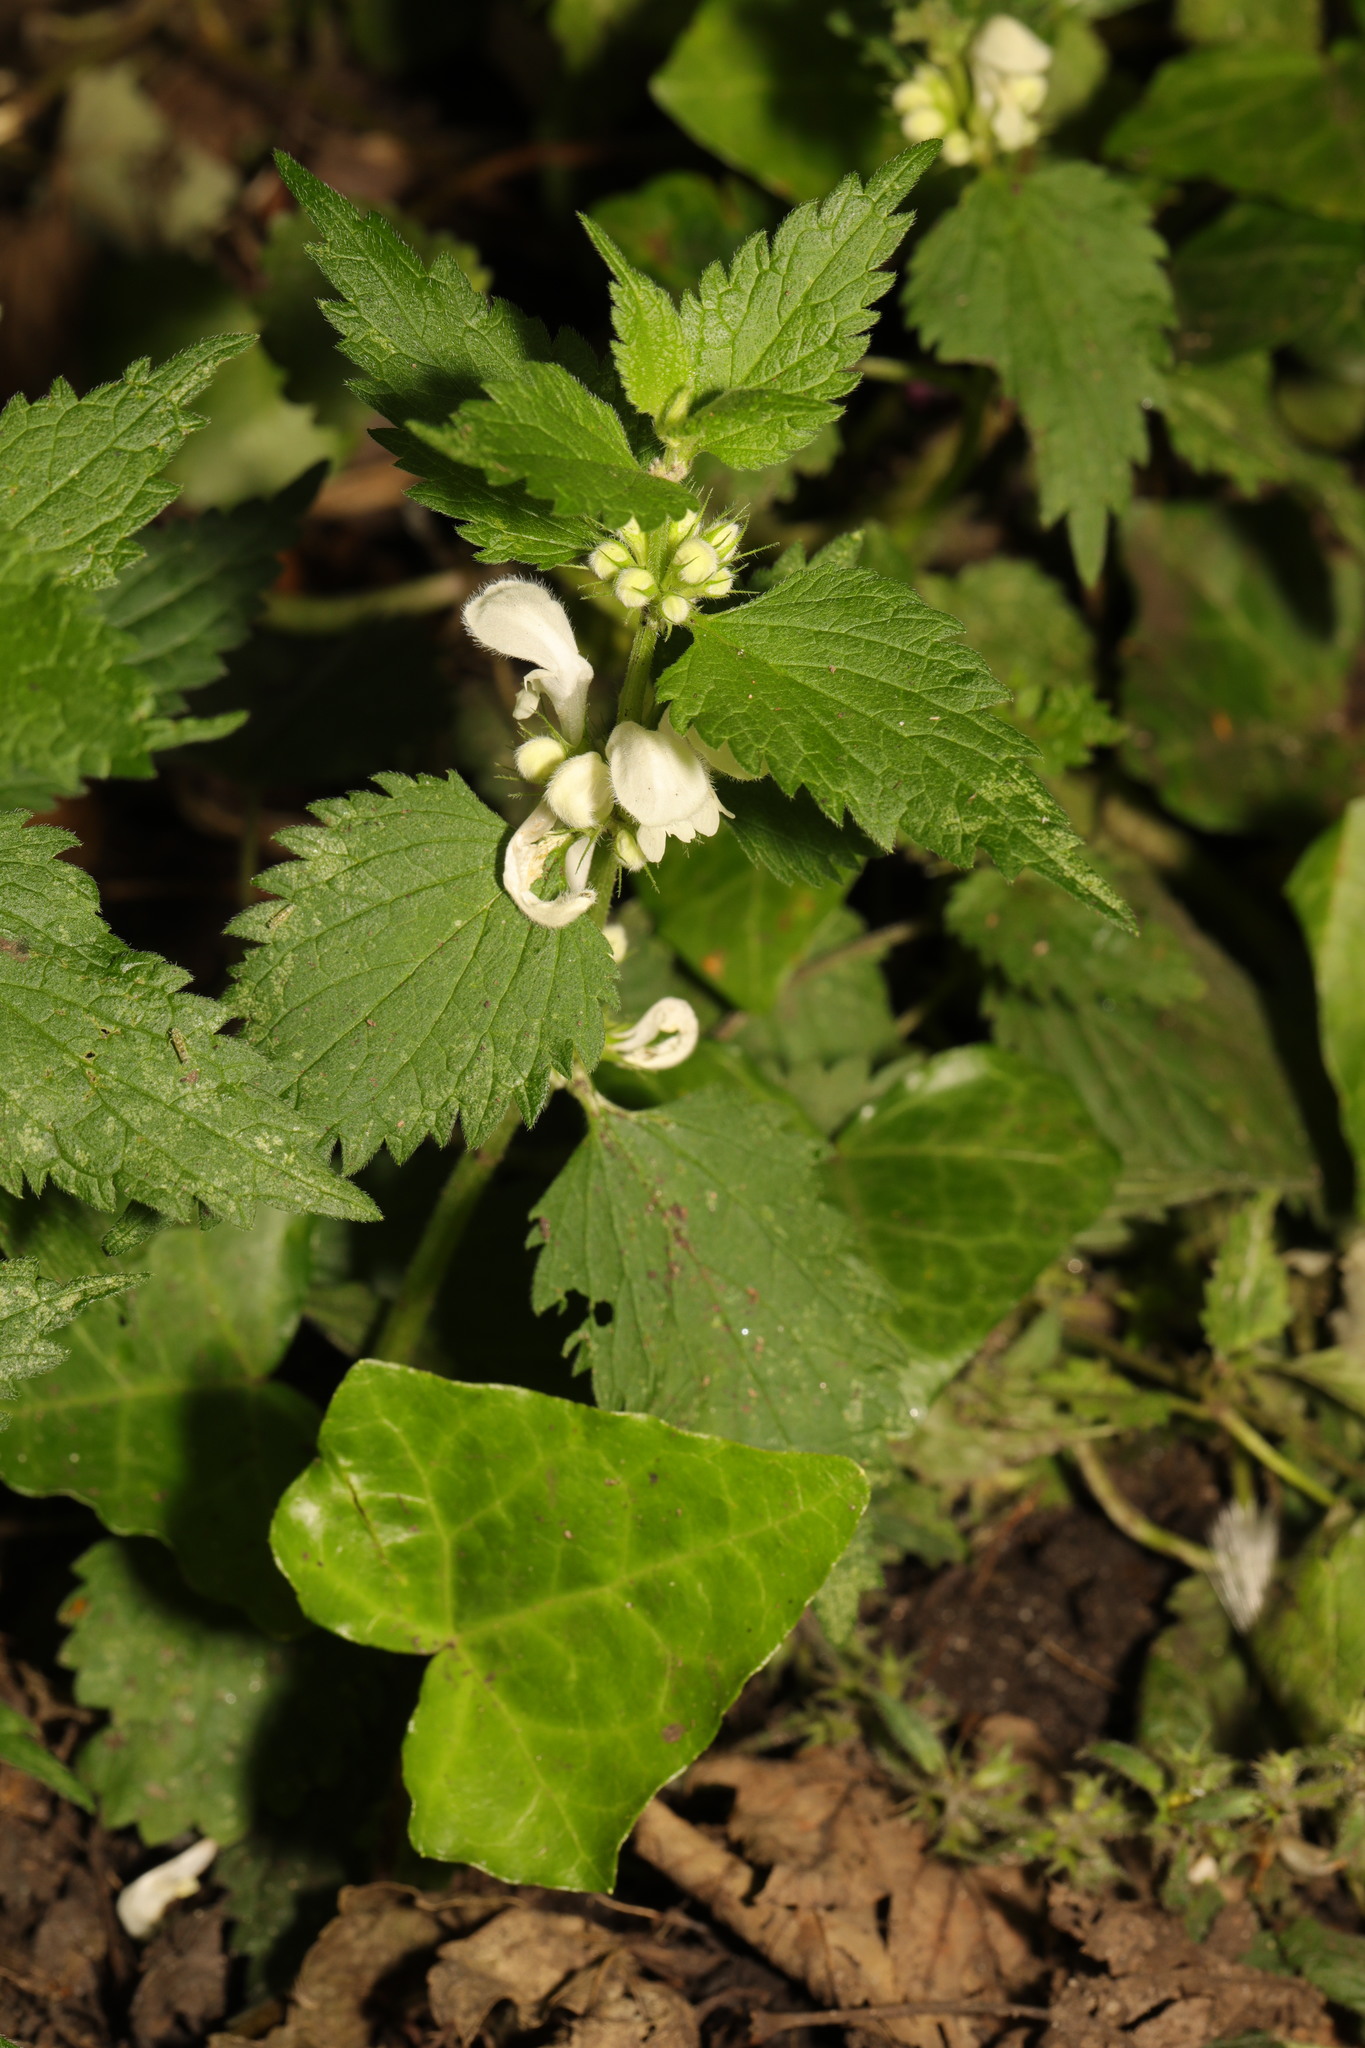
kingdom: Plantae
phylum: Tracheophyta
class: Magnoliopsida
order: Lamiales
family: Lamiaceae
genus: Lamium
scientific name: Lamium album
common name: White dead-nettle
